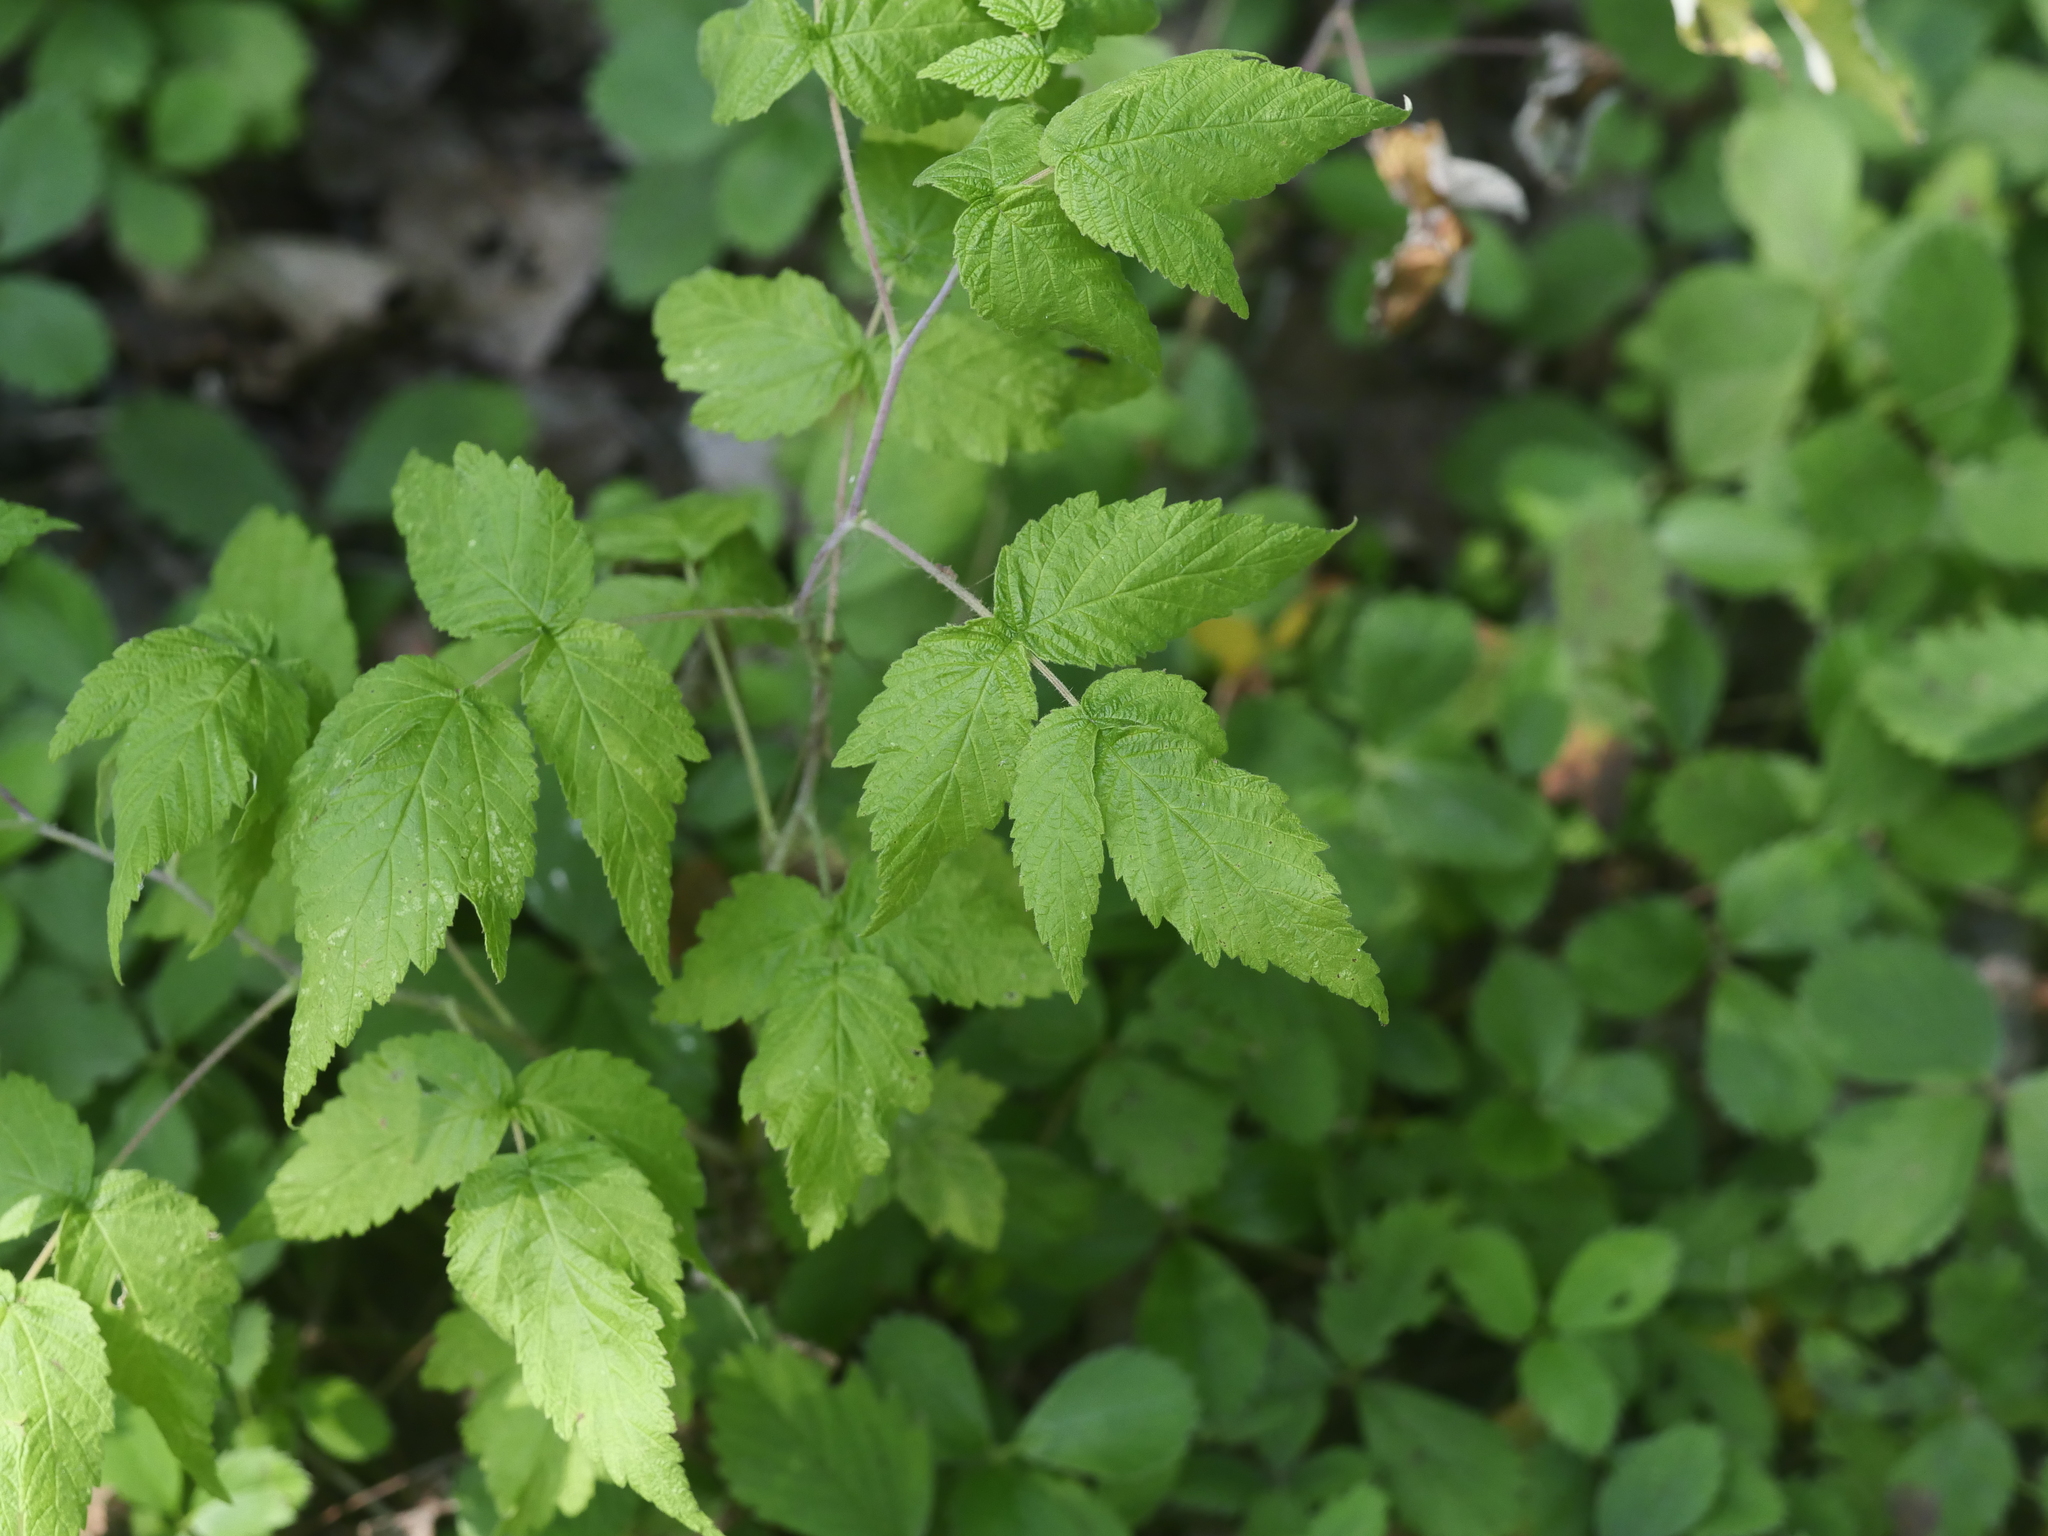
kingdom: Plantae
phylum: Tracheophyta
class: Magnoliopsida
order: Rosales
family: Rosaceae
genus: Rubus
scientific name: Rubus idaeus
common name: Raspberry
